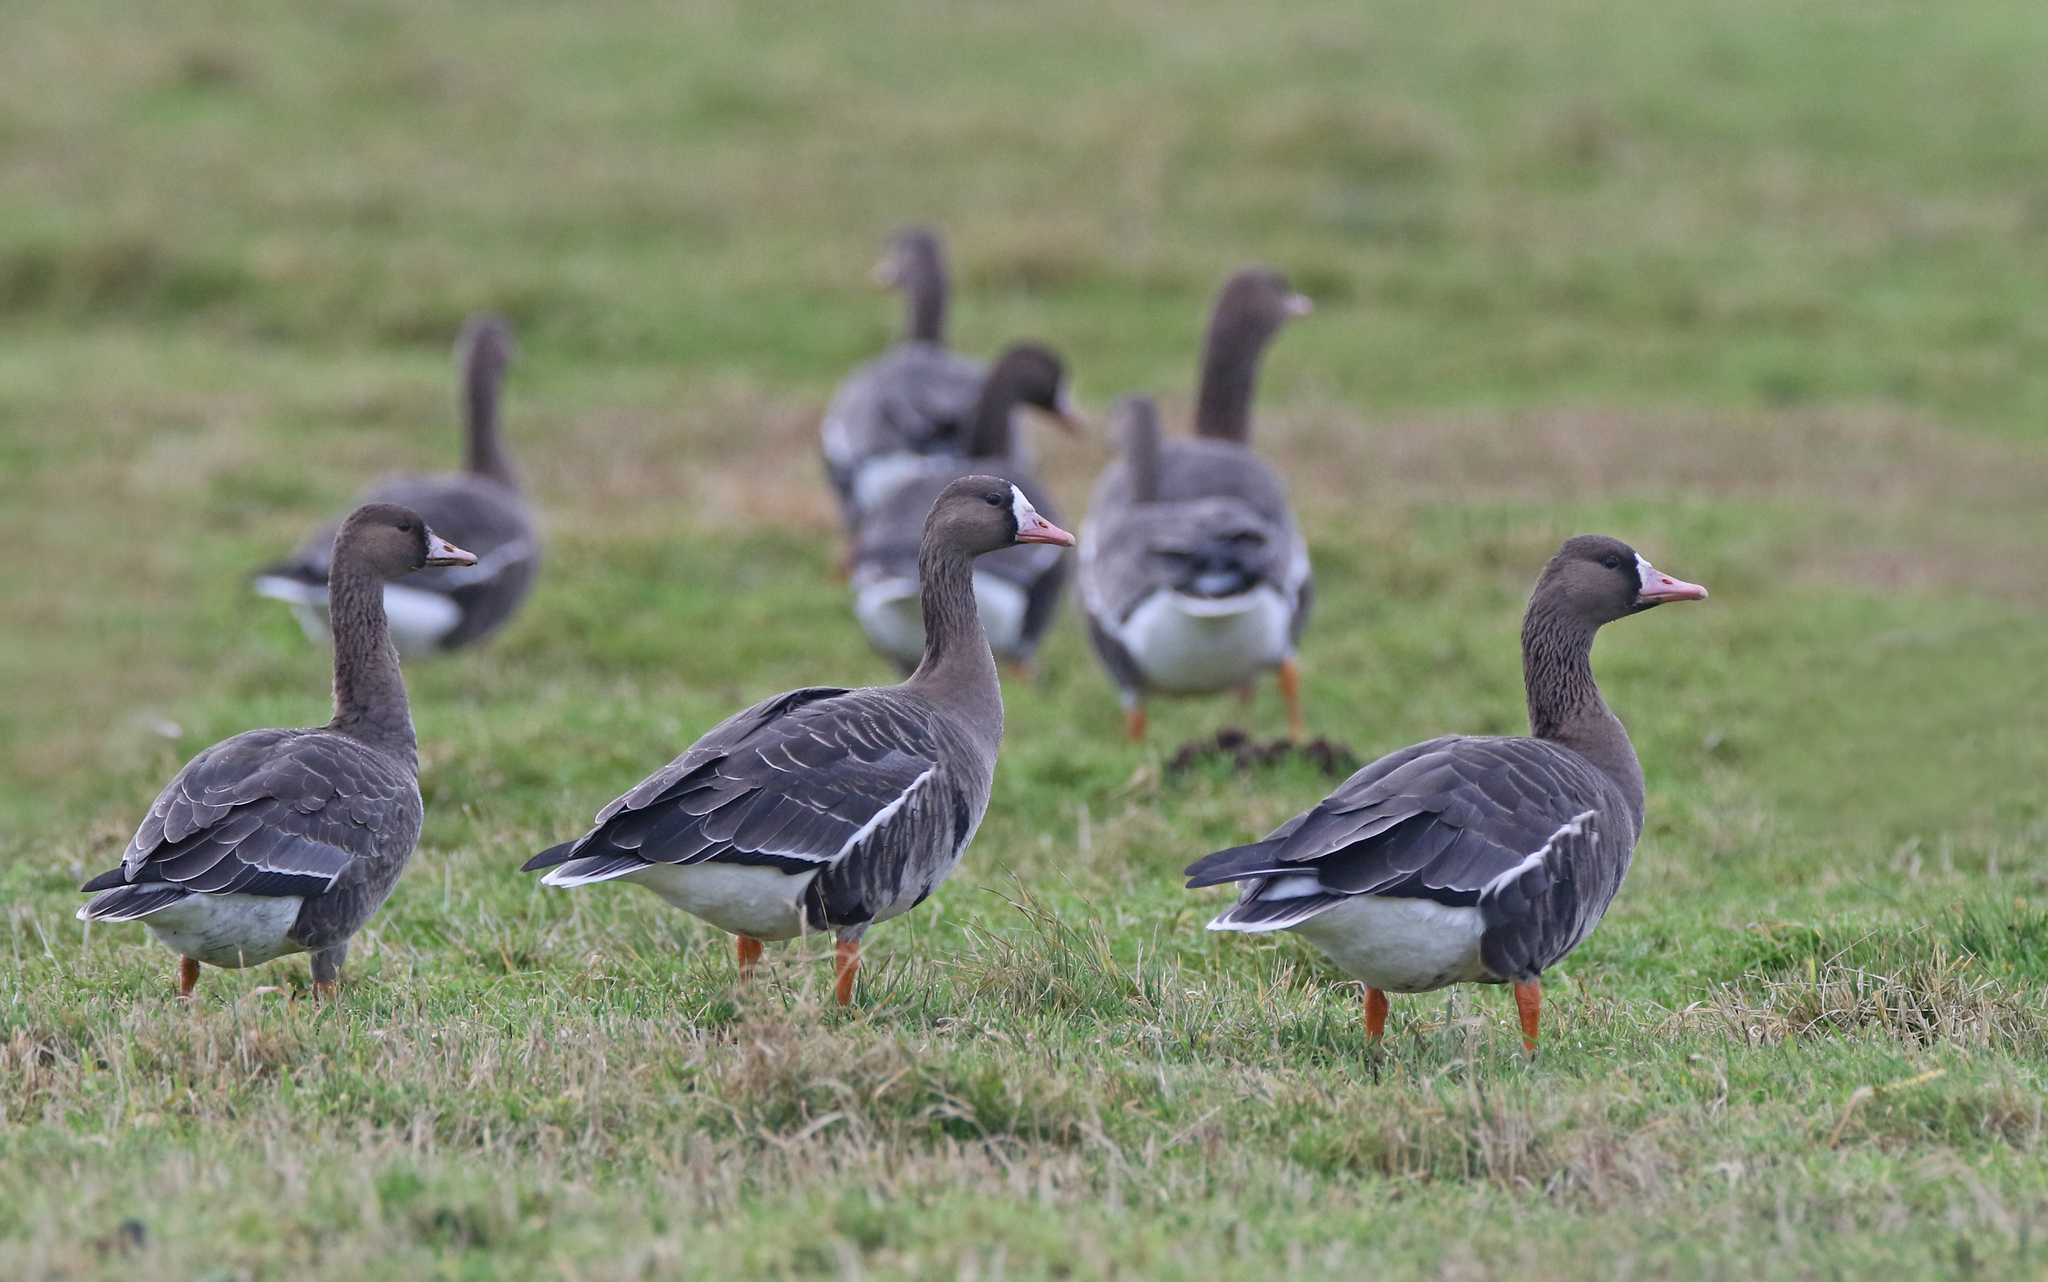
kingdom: Animalia
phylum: Chordata
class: Aves
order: Anseriformes
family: Anatidae
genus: Anser
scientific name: Anser albifrons
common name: Greater white-fronted goose
